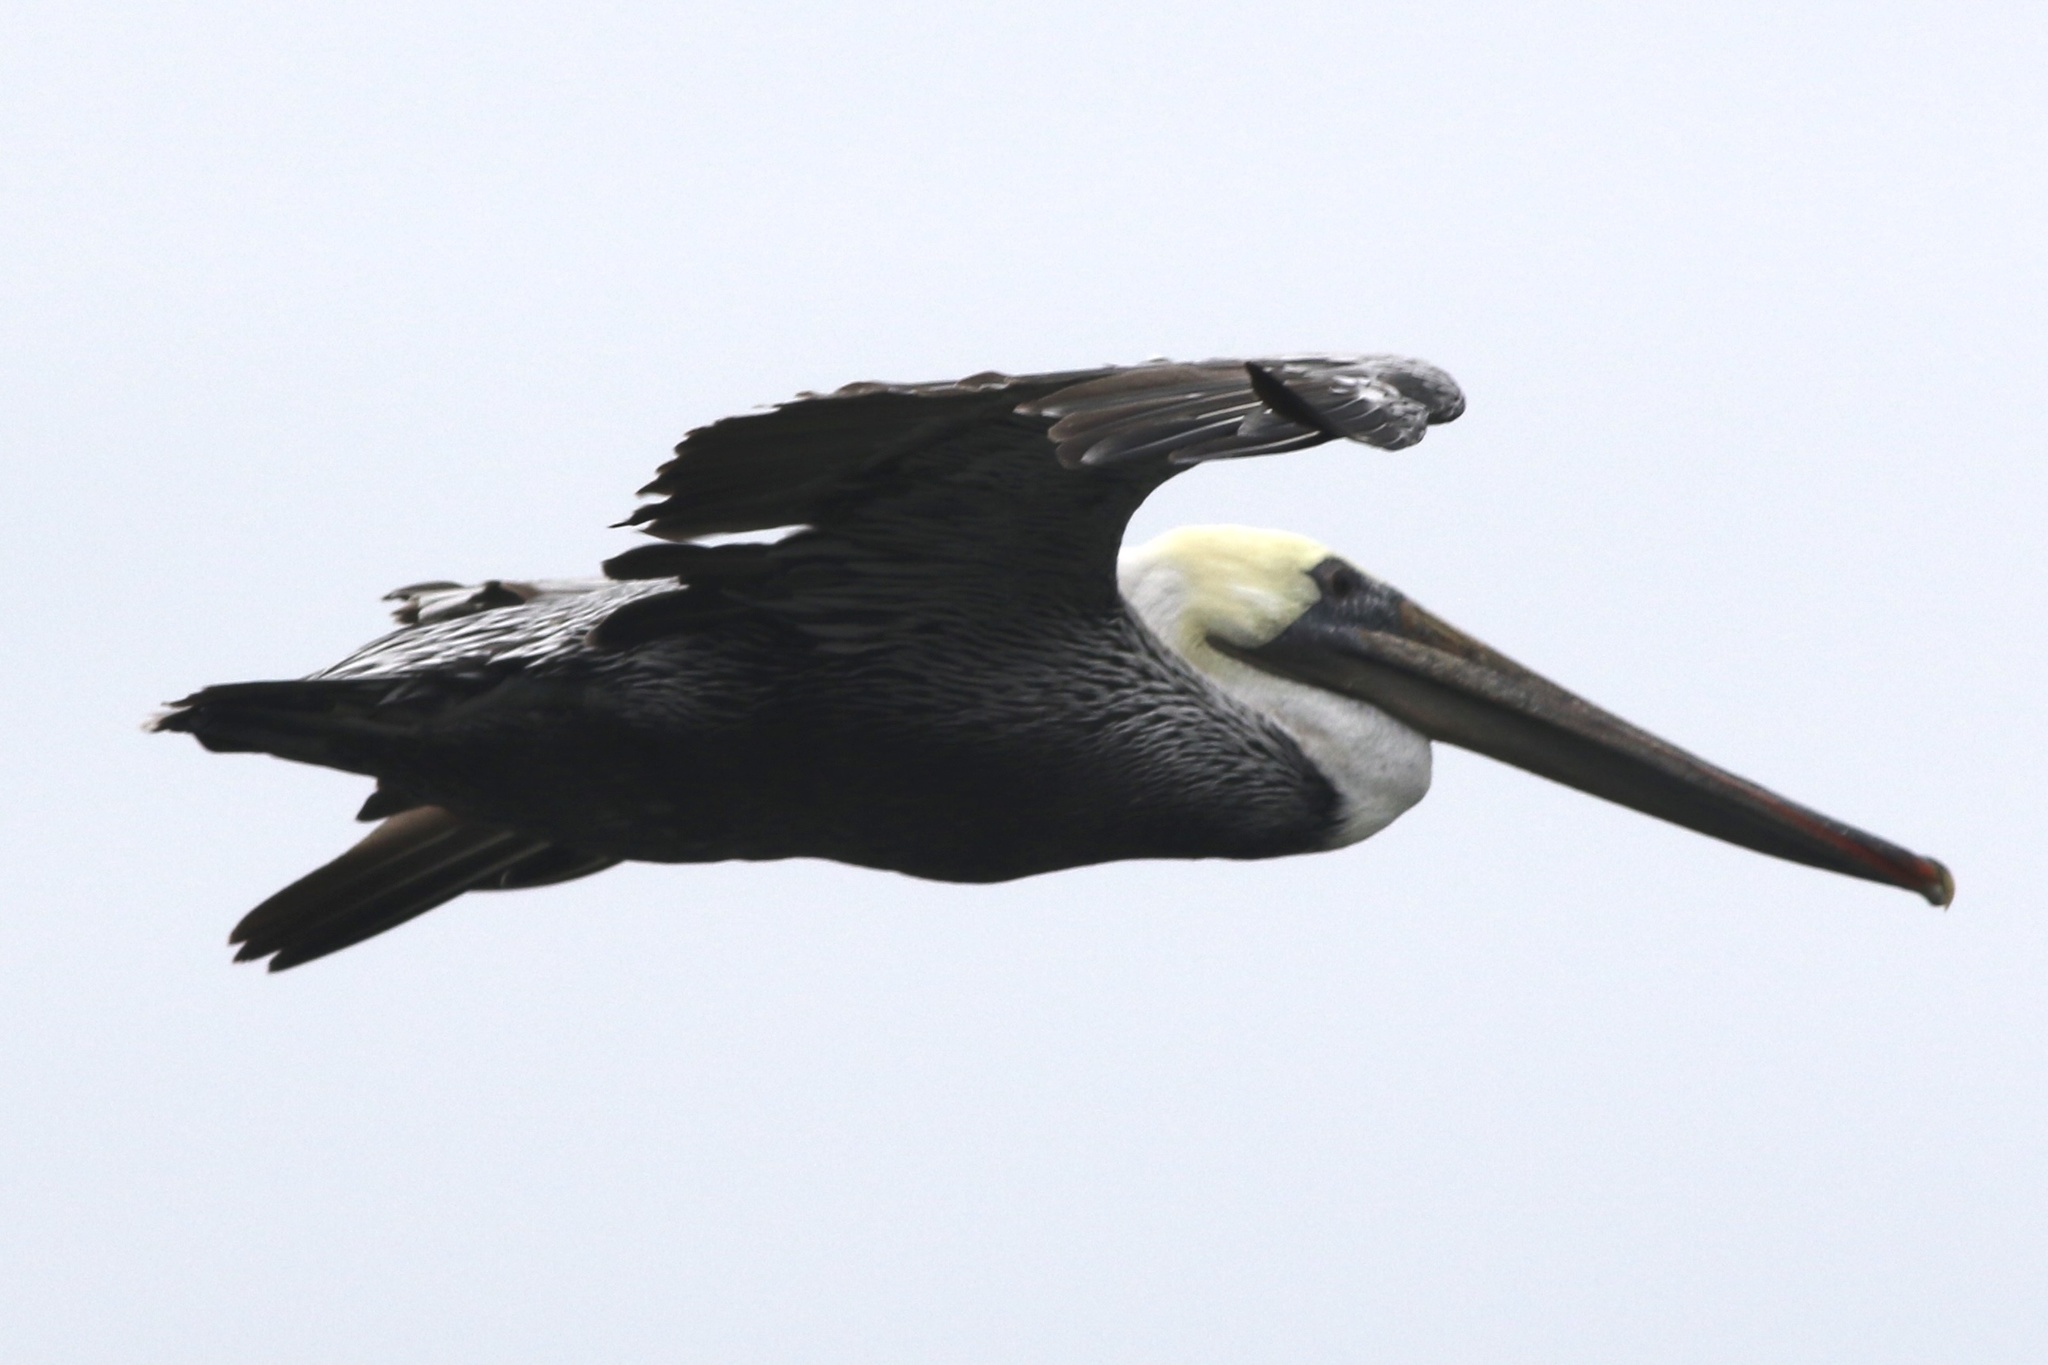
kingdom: Animalia
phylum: Chordata
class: Aves
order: Pelecaniformes
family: Pelecanidae
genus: Pelecanus
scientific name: Pelecanus occidentalis
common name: Brown pelican
